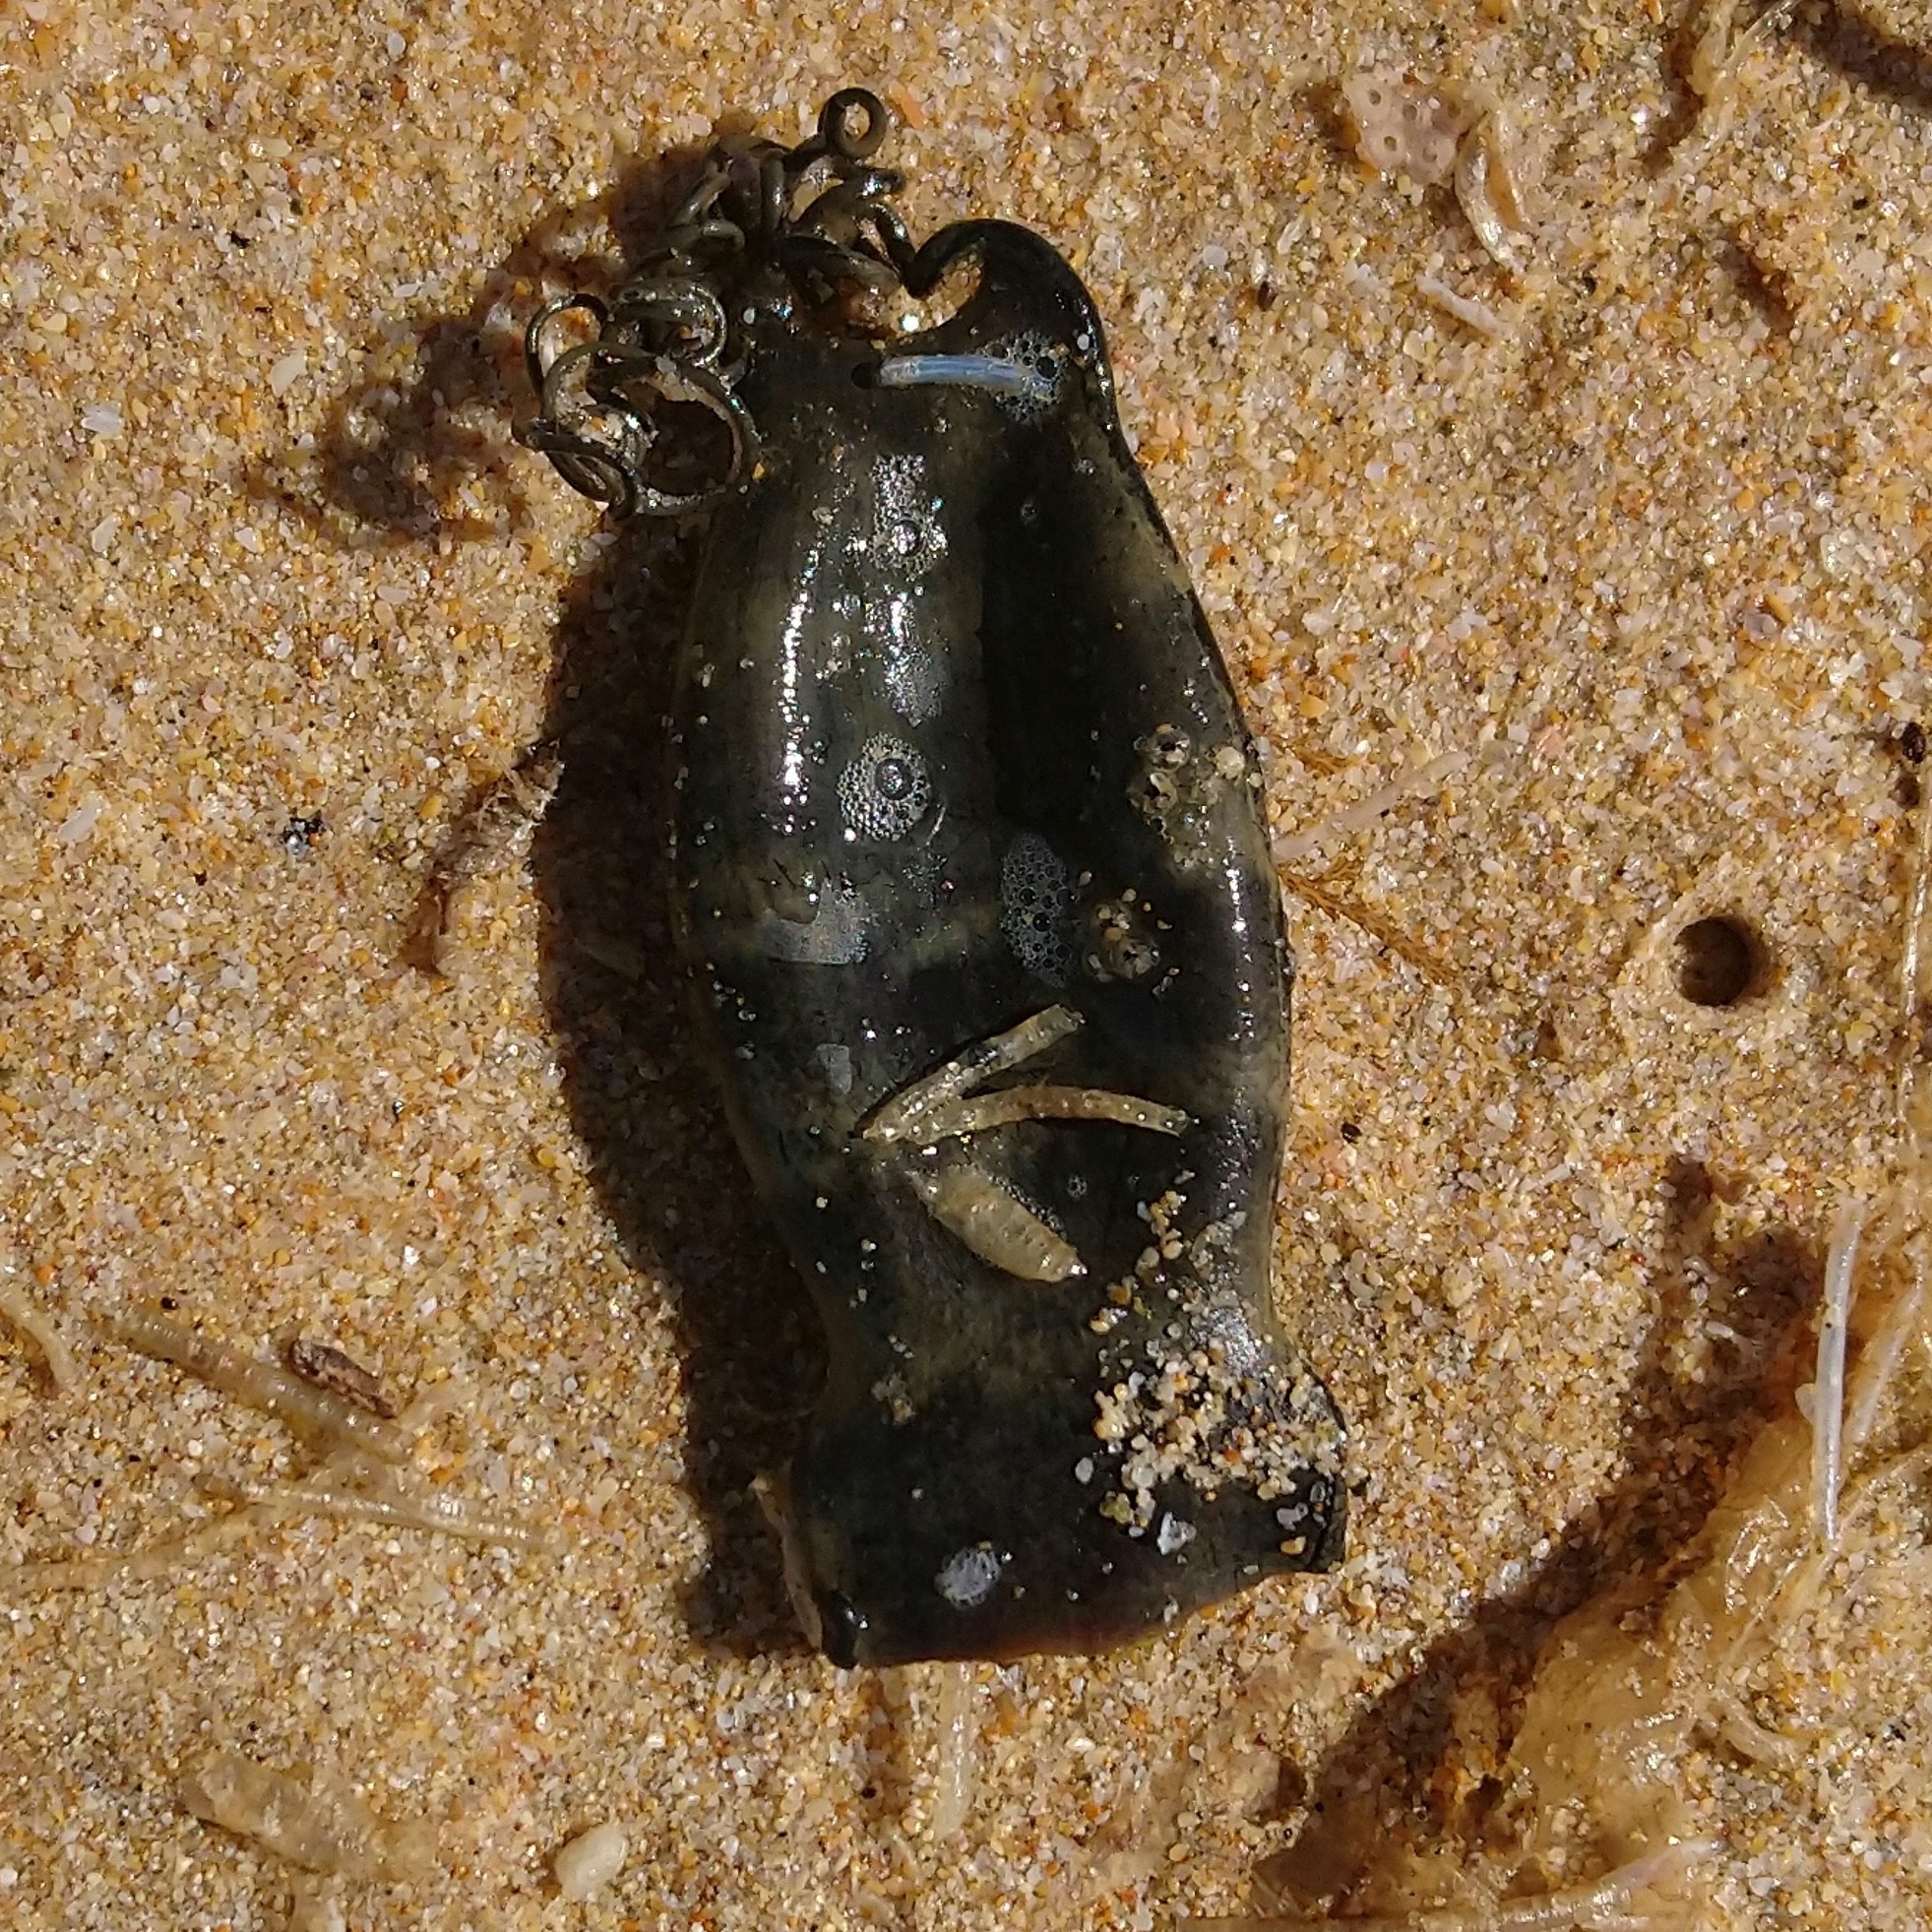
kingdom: Animalia
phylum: Chordata
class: Elasmobranchii
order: Carcharhiniformes
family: Scyliorhinidae
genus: Haploblepharus
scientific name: Haploblepharus edwardsii
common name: Puffadder shyshark
